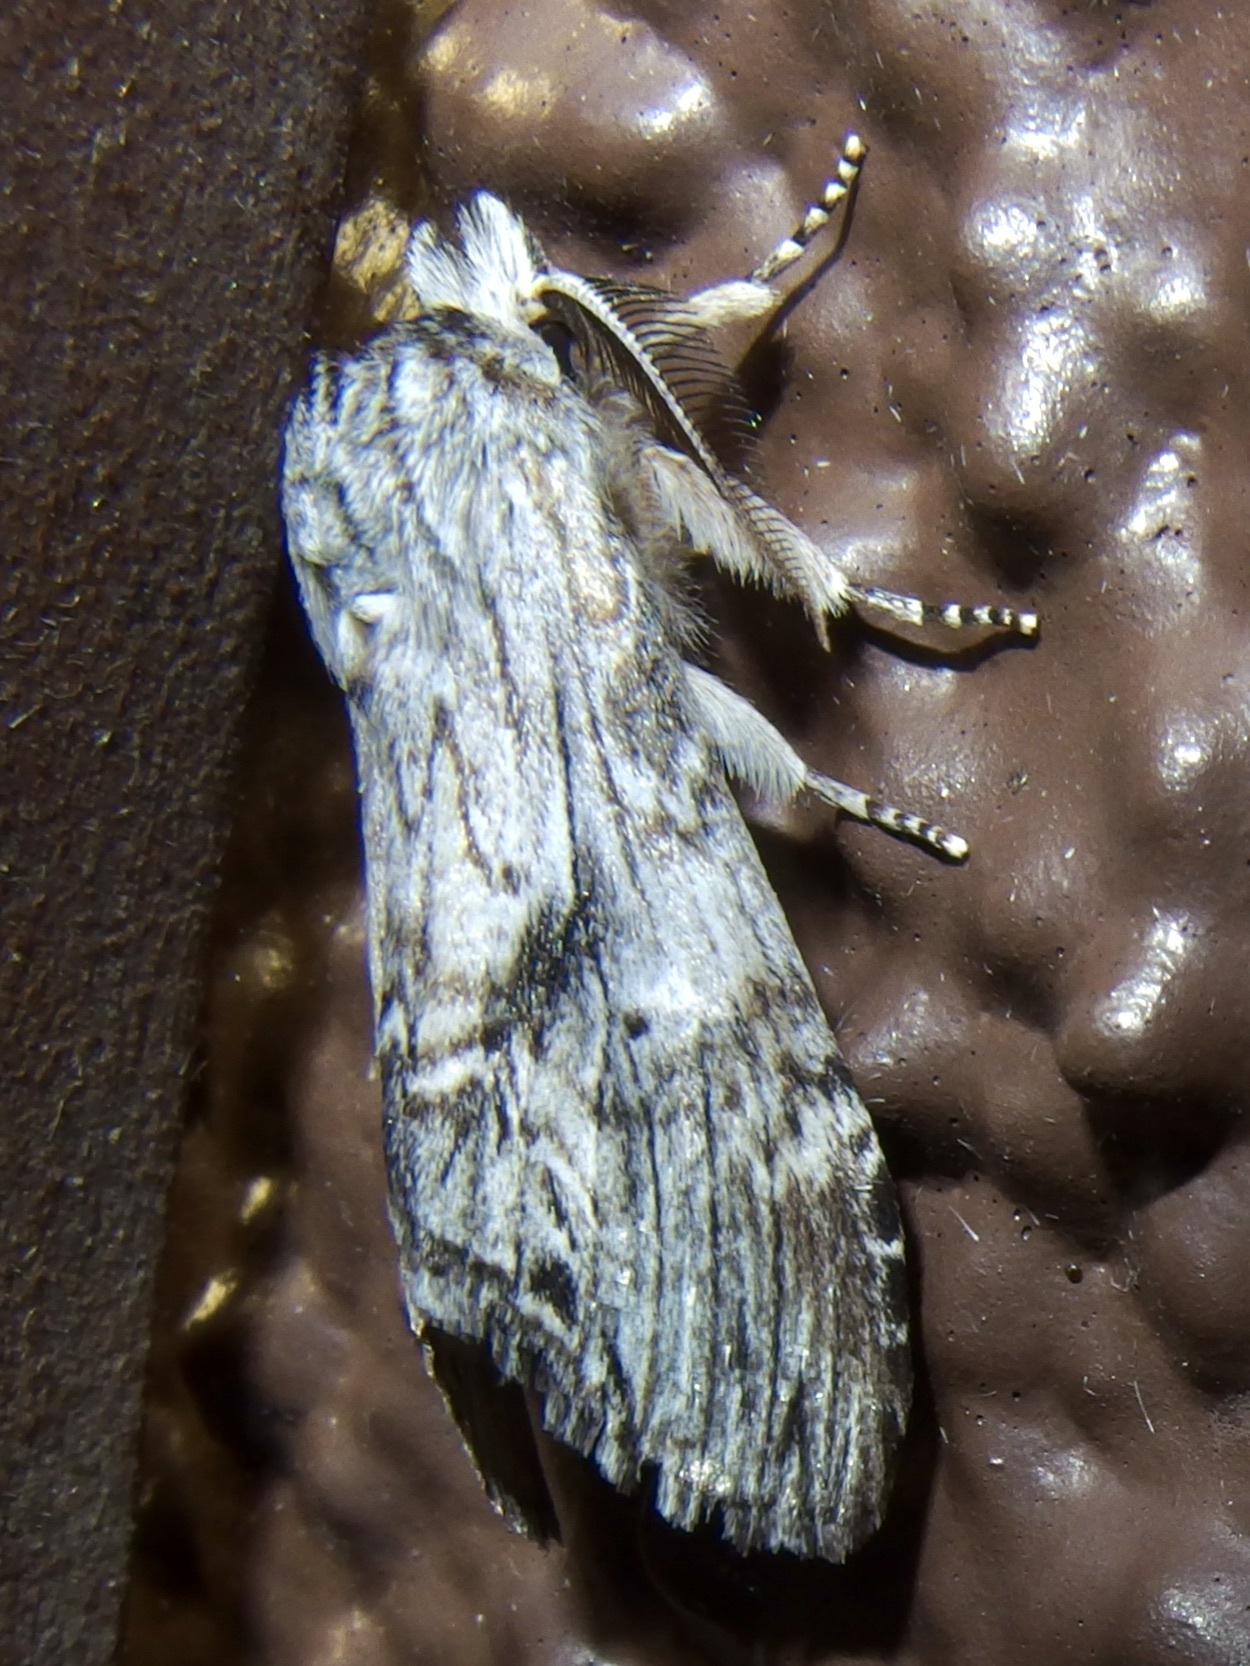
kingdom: Animalia
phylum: Arthropoda
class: Insecta
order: Lepidoptera
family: Notodontidae
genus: Notela
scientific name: Notela jaliscana
